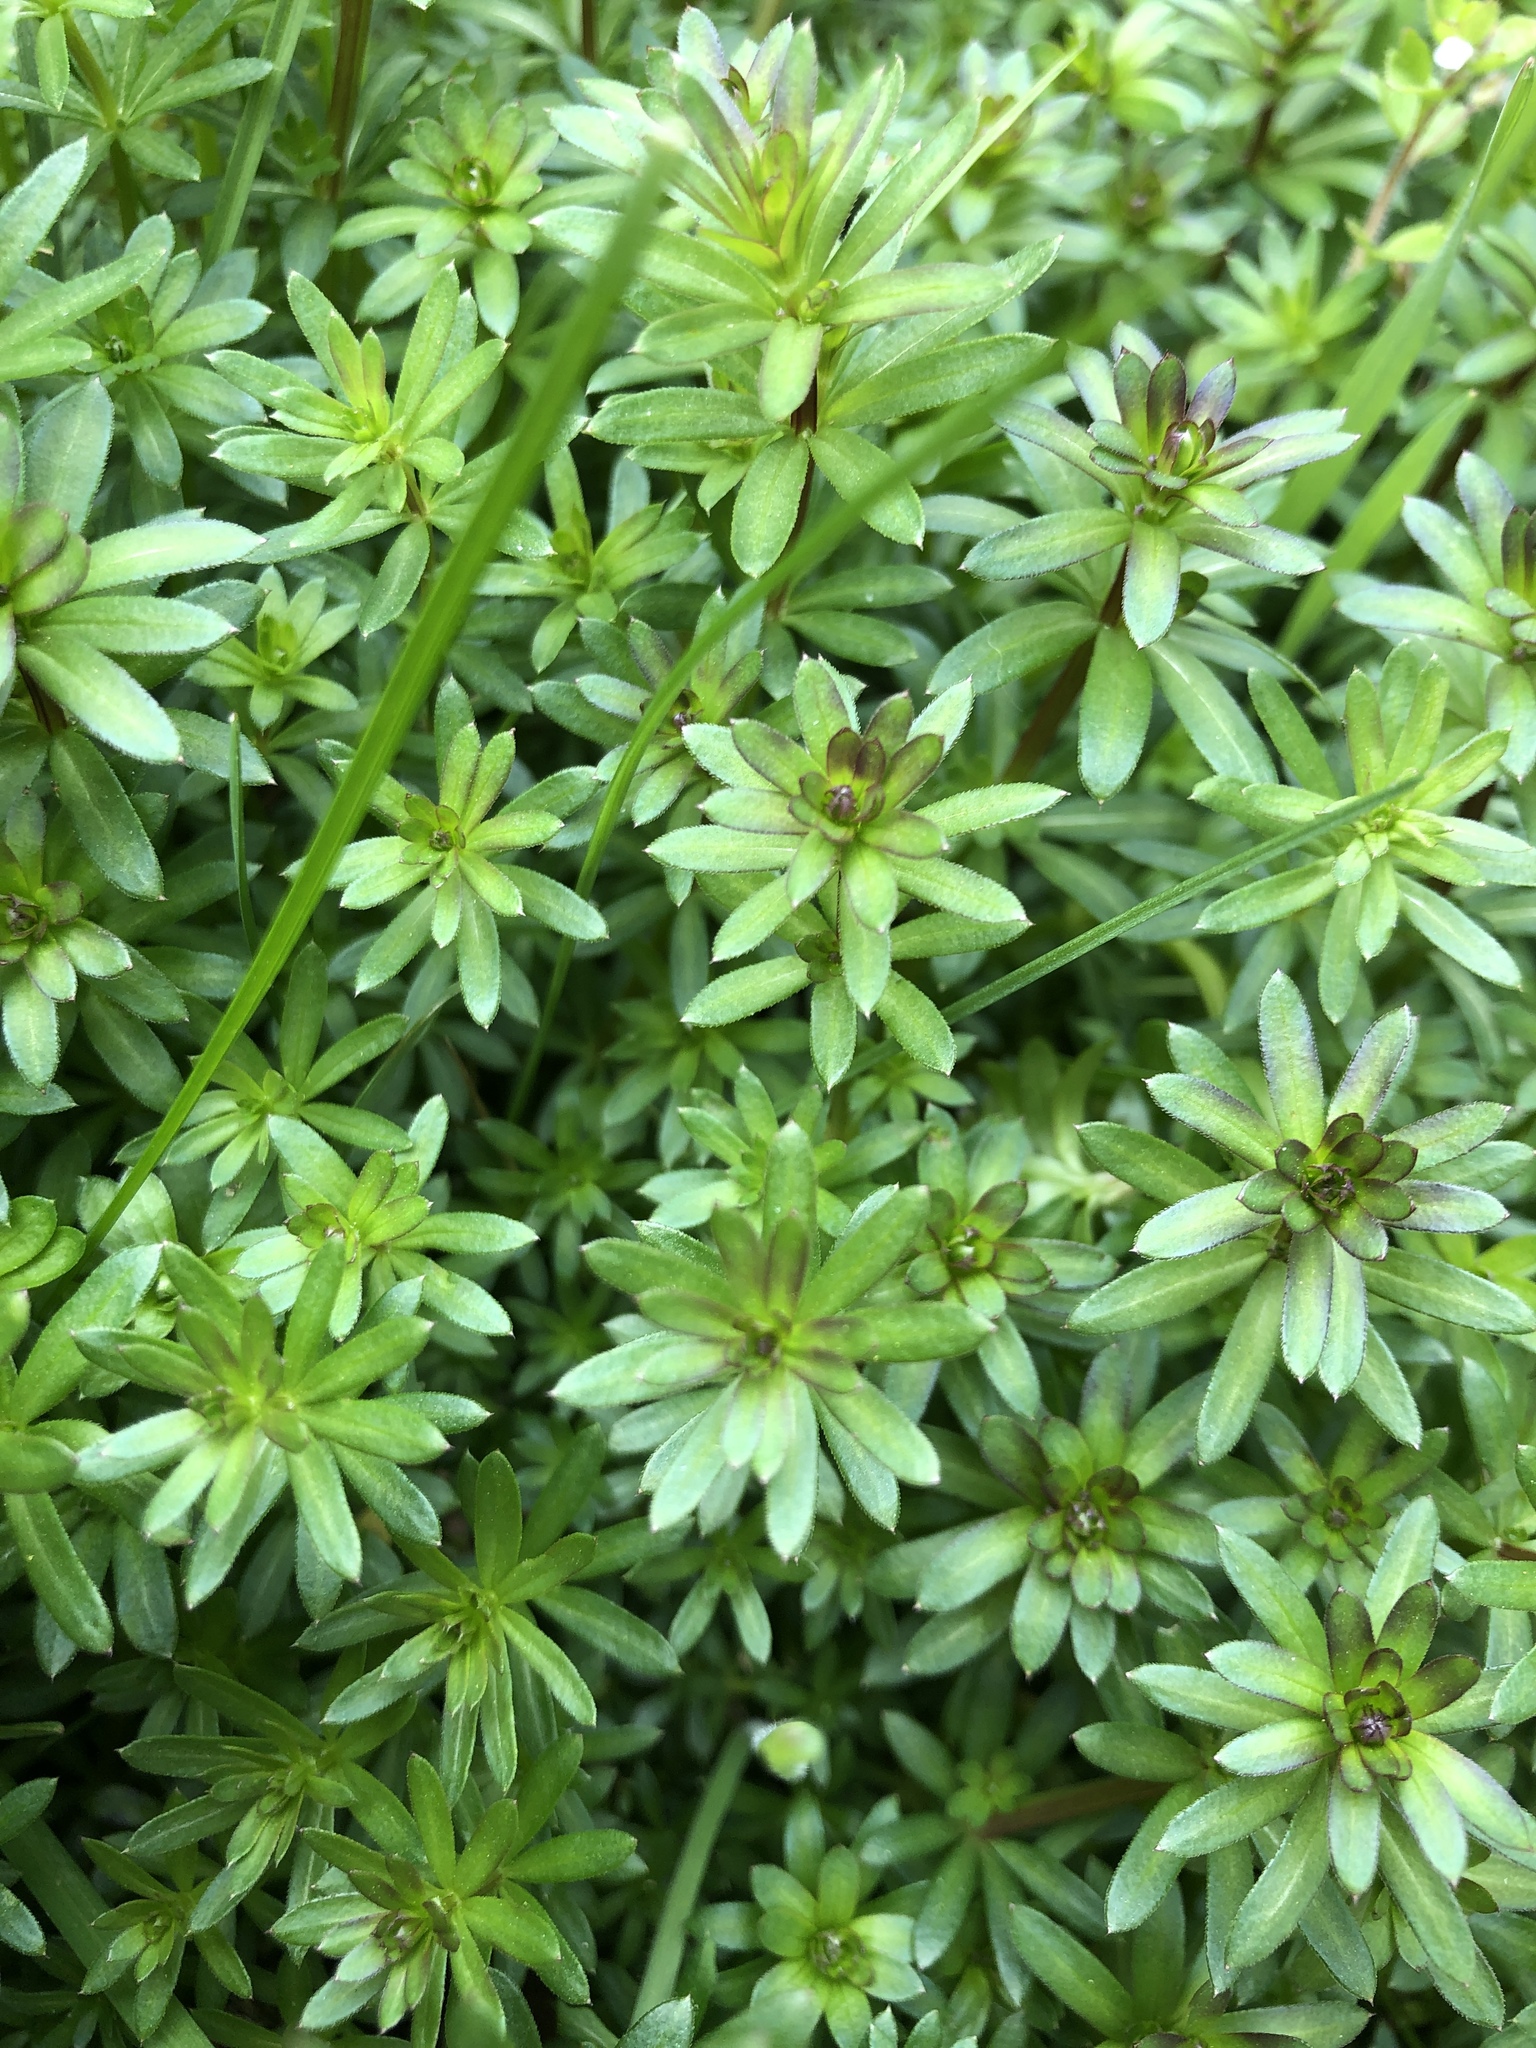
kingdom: Plantae
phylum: Tracheophyta
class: Magnoliopsida
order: Gentianales
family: Rubiaceae
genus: Galium
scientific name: Galium album
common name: White bedstraw
